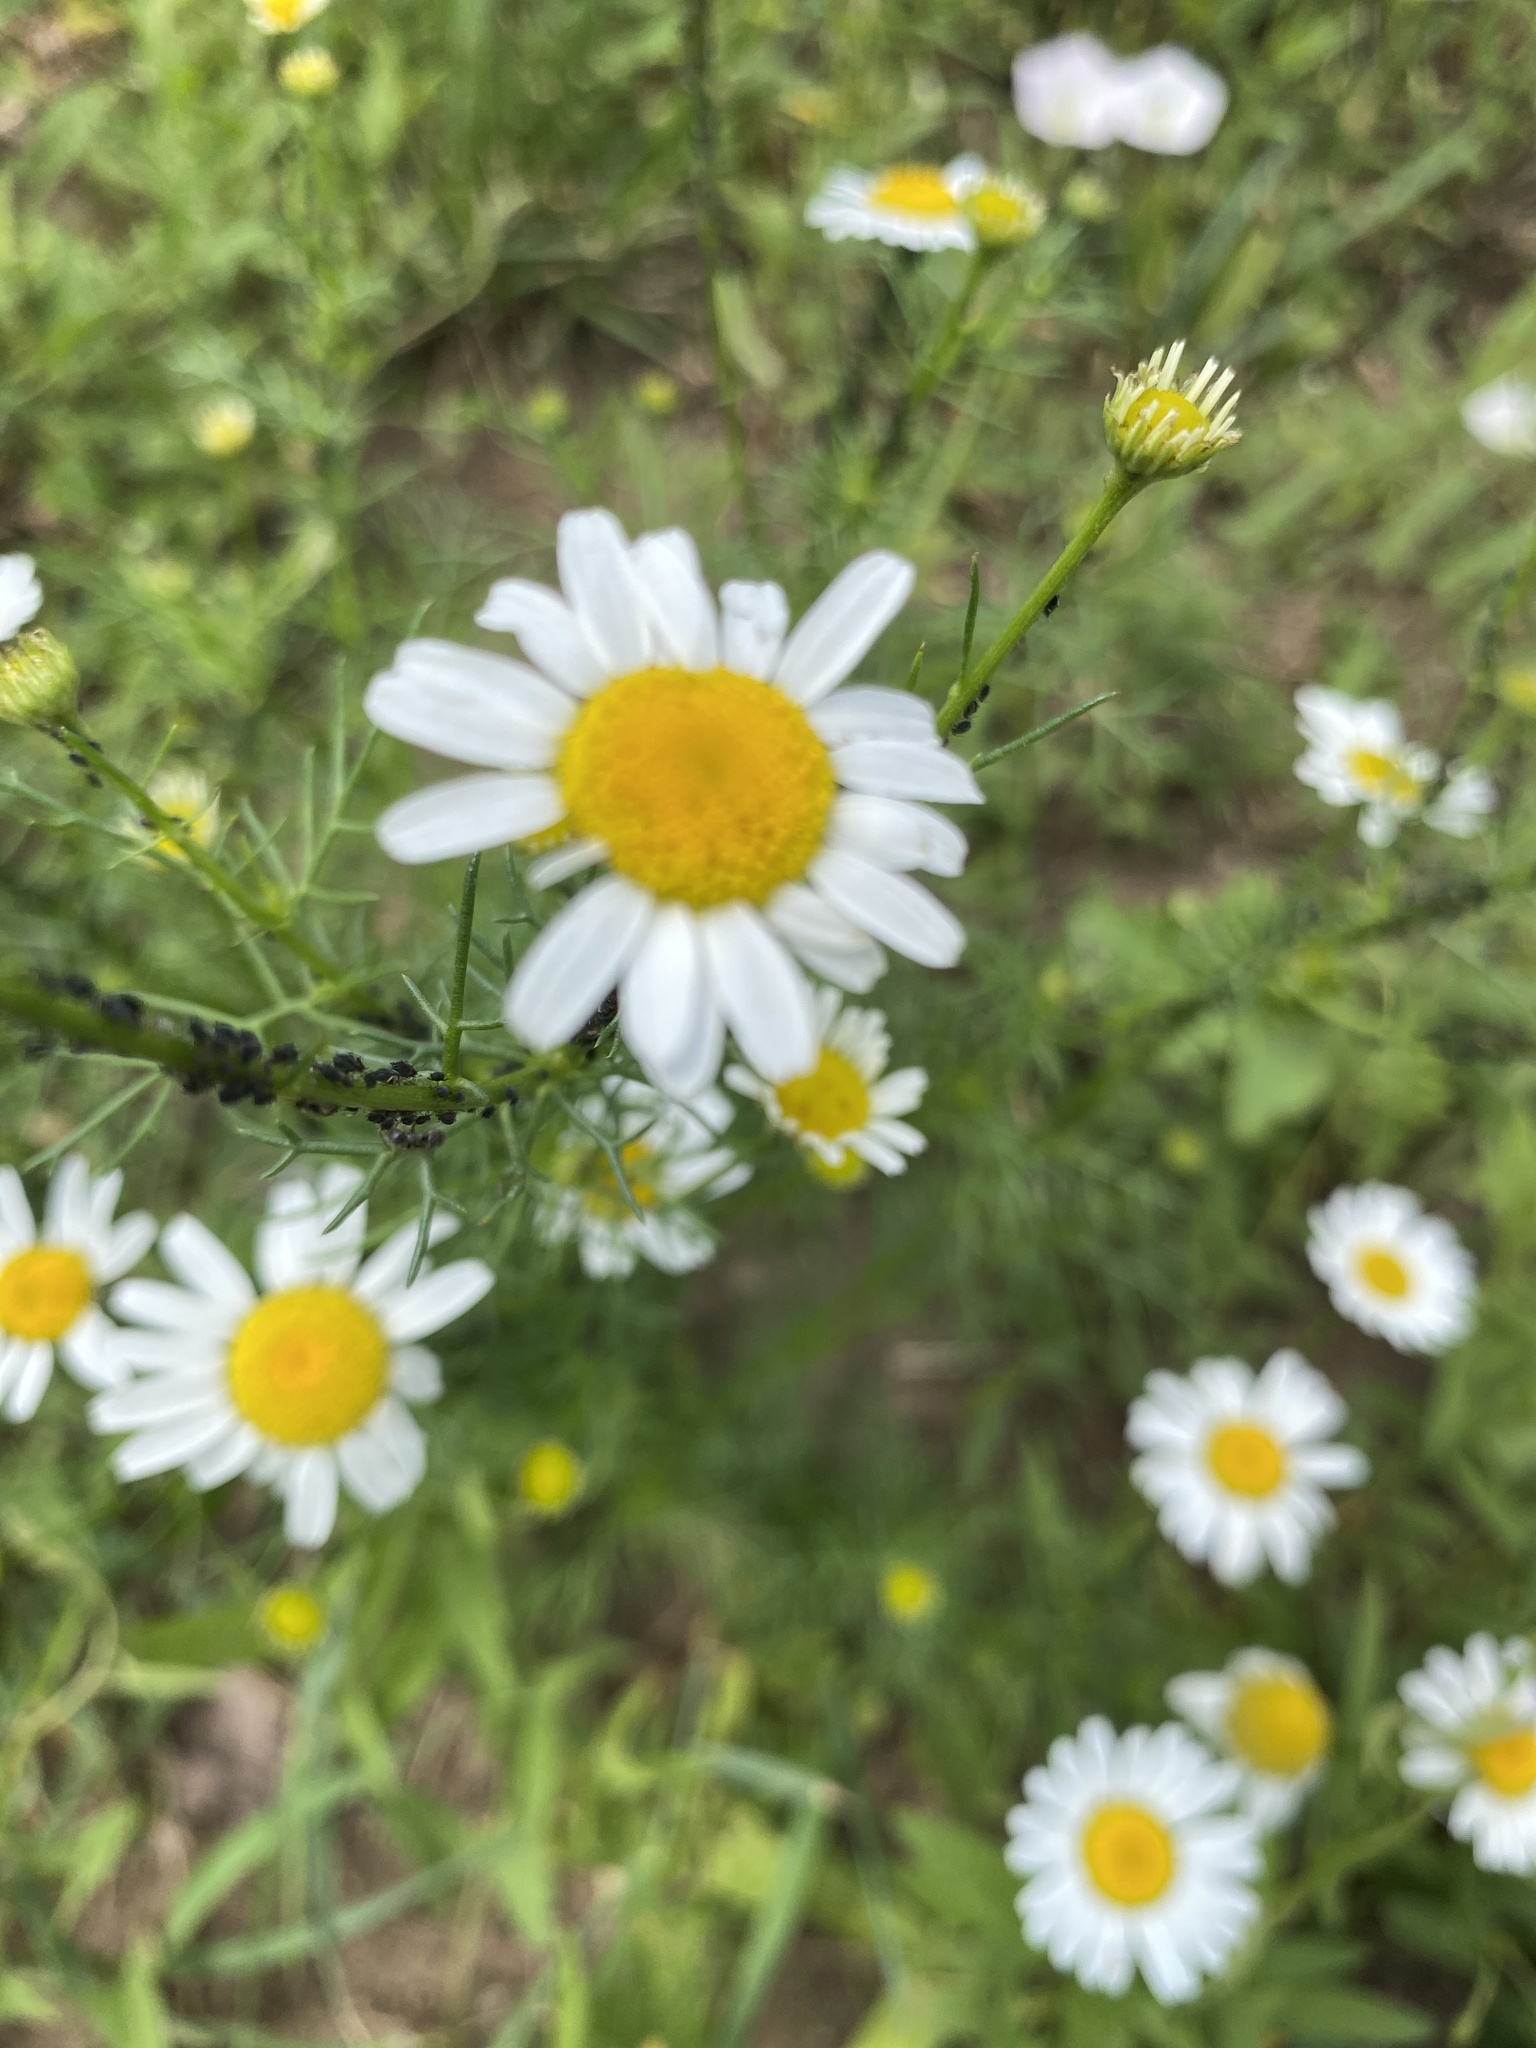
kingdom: Plantae
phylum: Tracheophyta
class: Magnoliopsida
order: Asterales
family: Asteraceae
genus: Tripleurospermum
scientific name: Tripleurospermum inodorum
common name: Scentless mayweed
